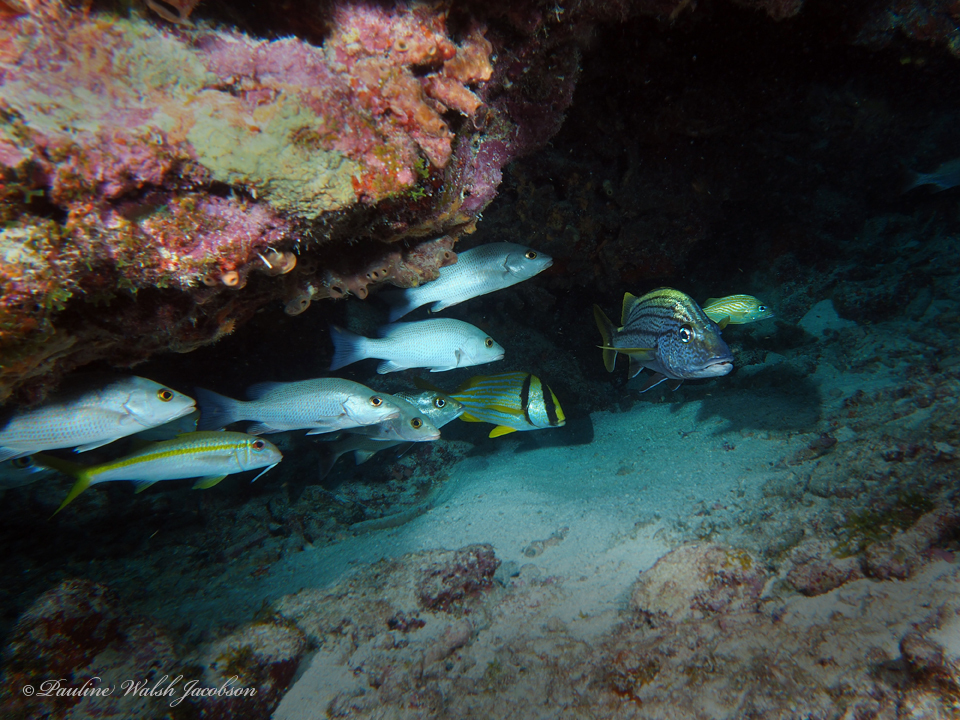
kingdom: Animalia
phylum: Chordata
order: Perciformes
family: Lutjanidae
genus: Lutjanus
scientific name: Lutjanus griseus
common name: Gray snapper
